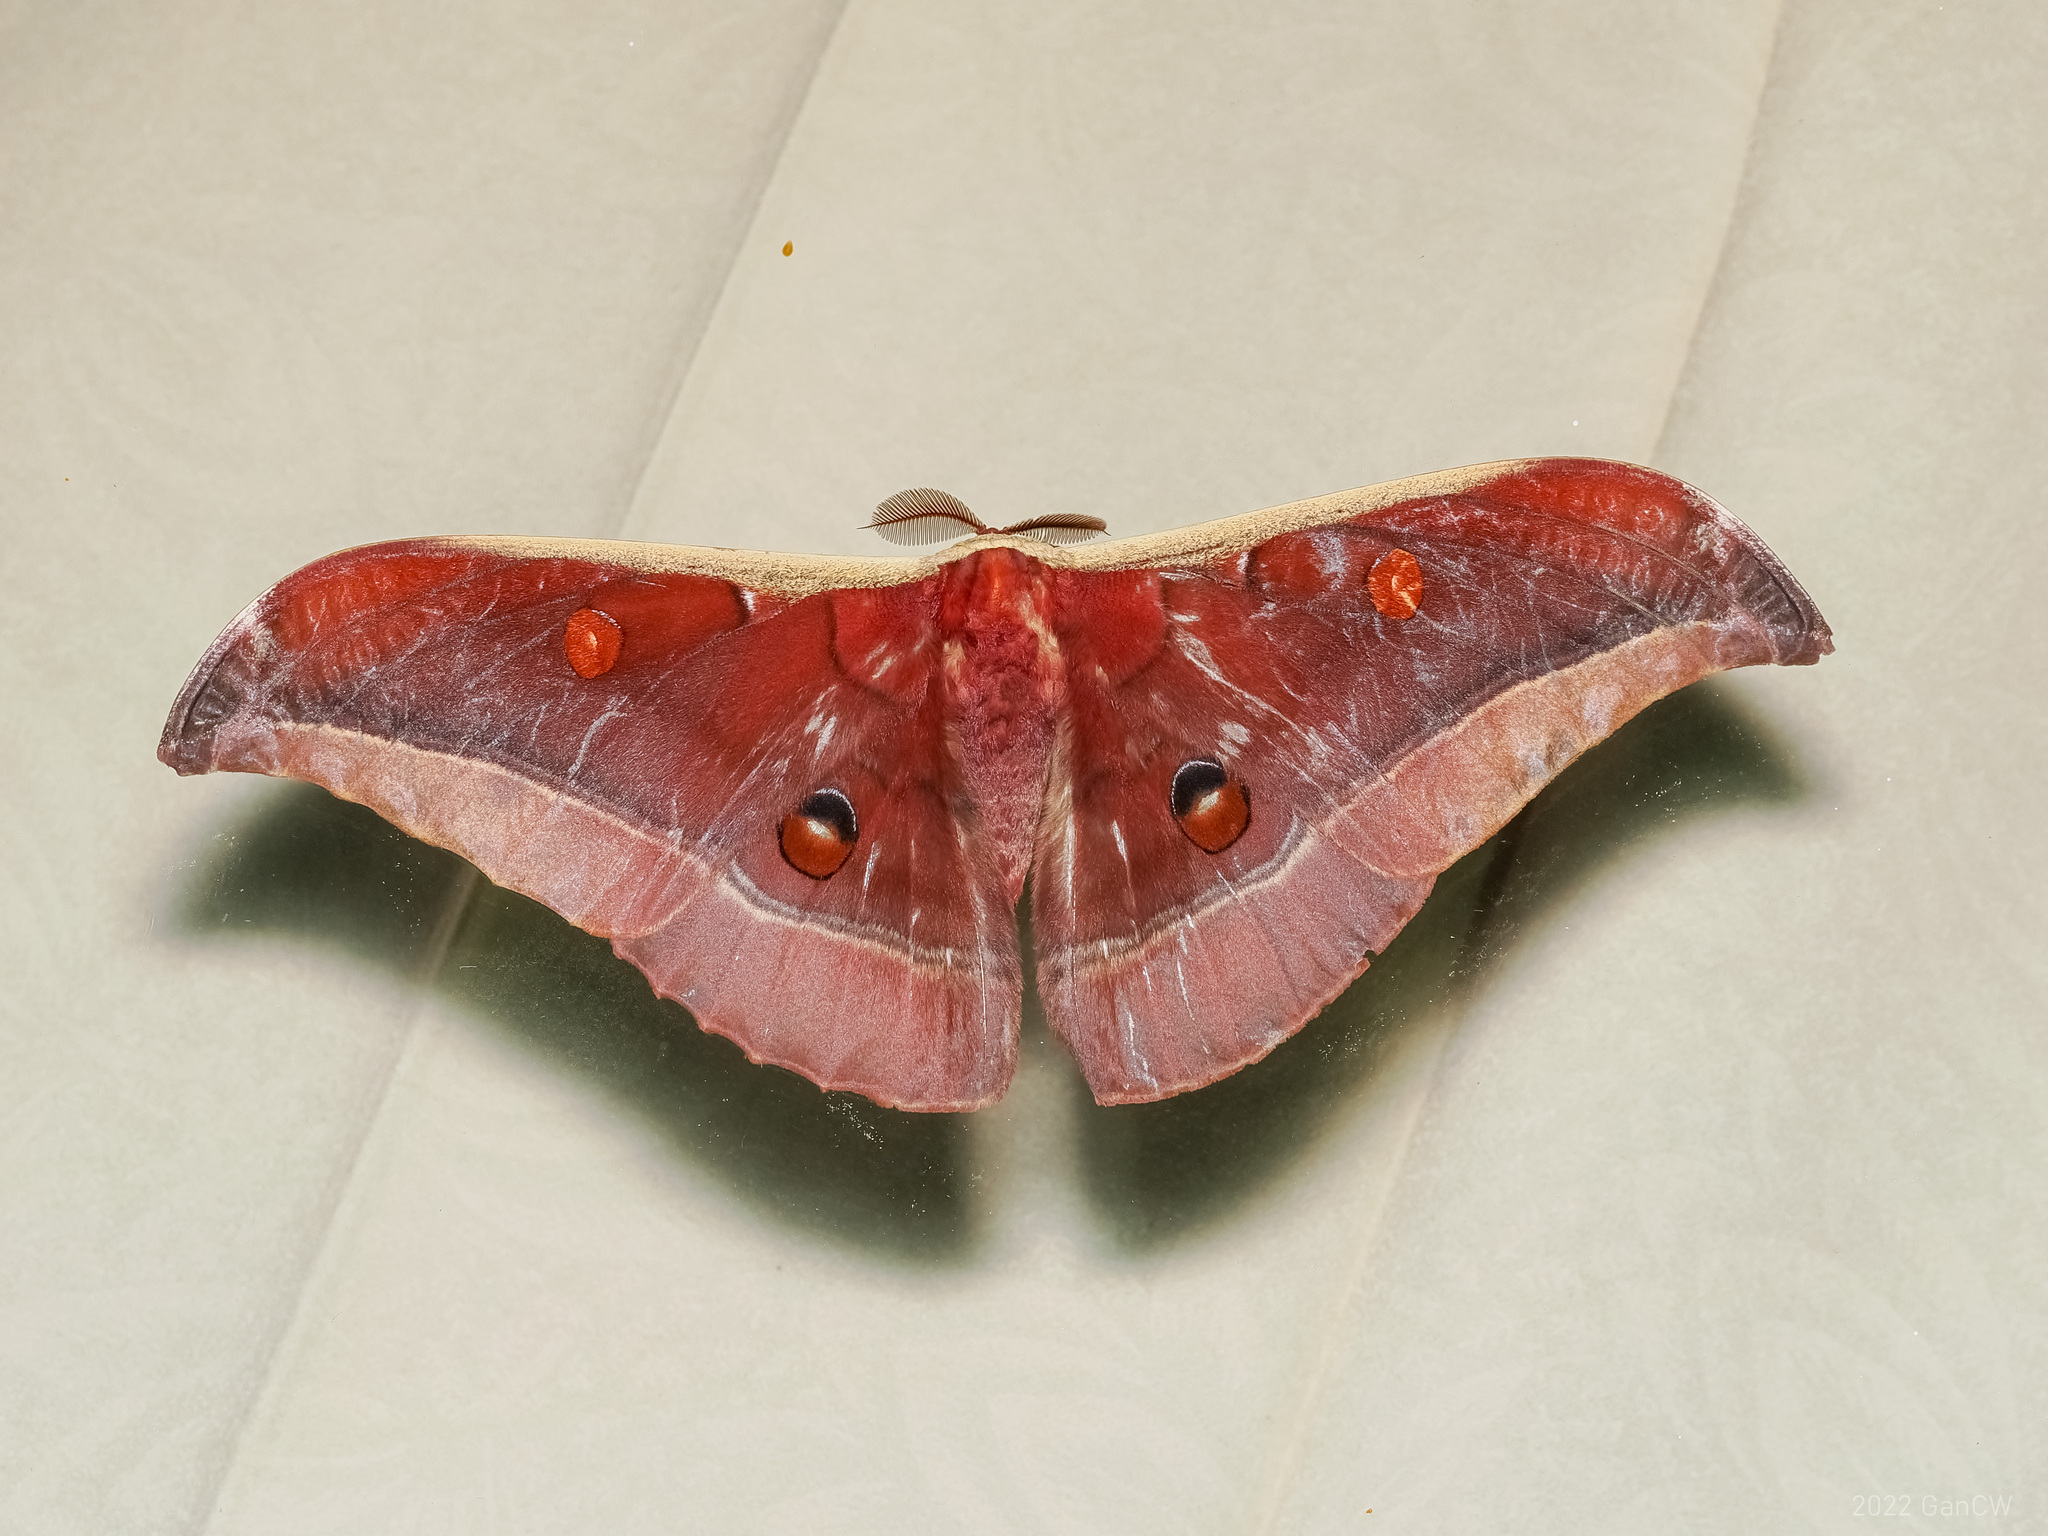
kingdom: Animalia
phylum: Arthropoda
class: Insecta
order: Lepidoptera
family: Saturniidae
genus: Antheraea
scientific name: Antheraea youngi
